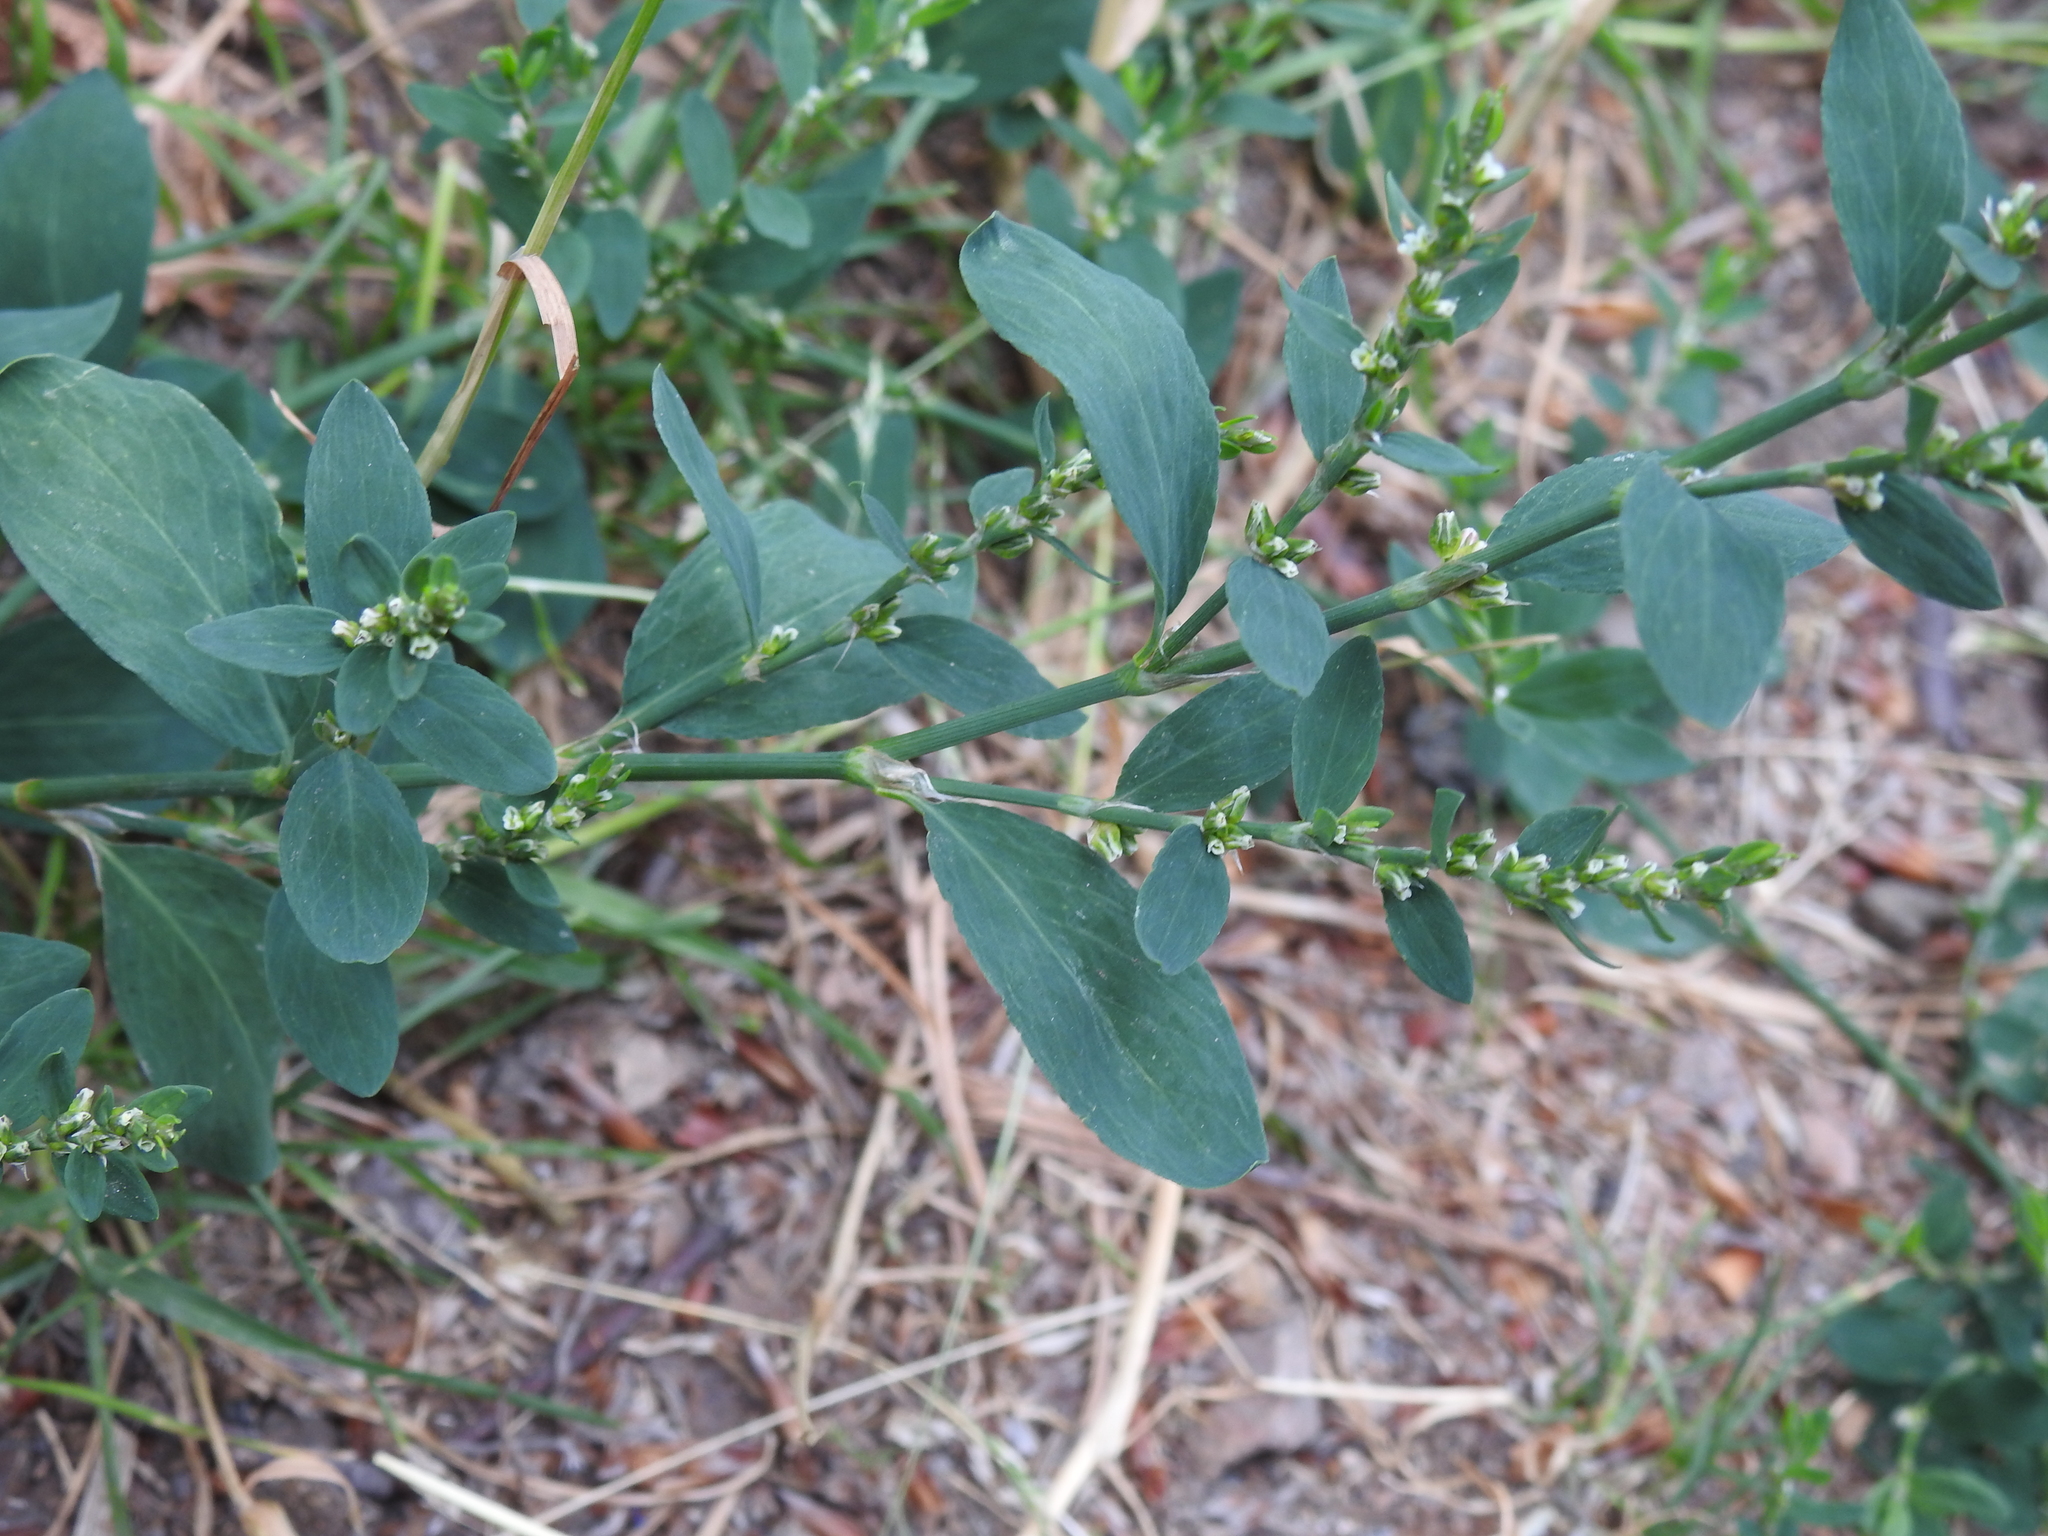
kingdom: Plantae
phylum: Tracheophyta
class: Magnoliopsida
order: Caryophyllales
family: Polygonaceae
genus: Polygonum
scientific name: Polygonum aviculare
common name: Prostrate knotweed
